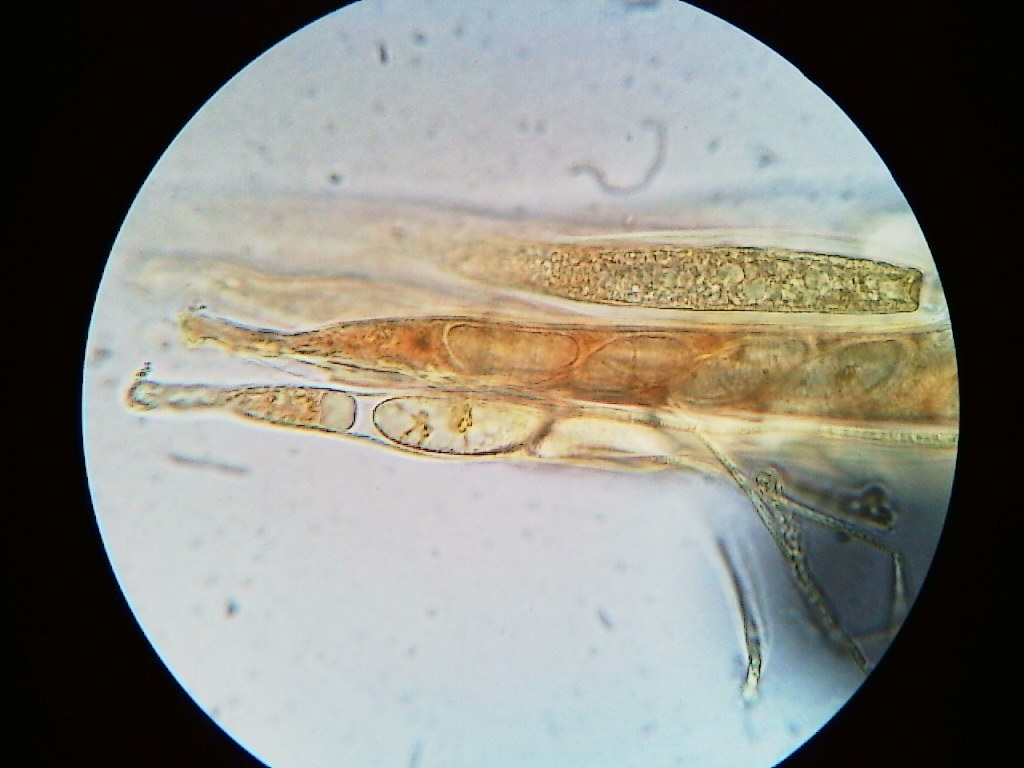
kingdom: Fungi
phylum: Ascomycota
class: Leotiomycetes
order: Helotiales
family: Dermateaceae
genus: Pezicula
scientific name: Pezicula carpinea
